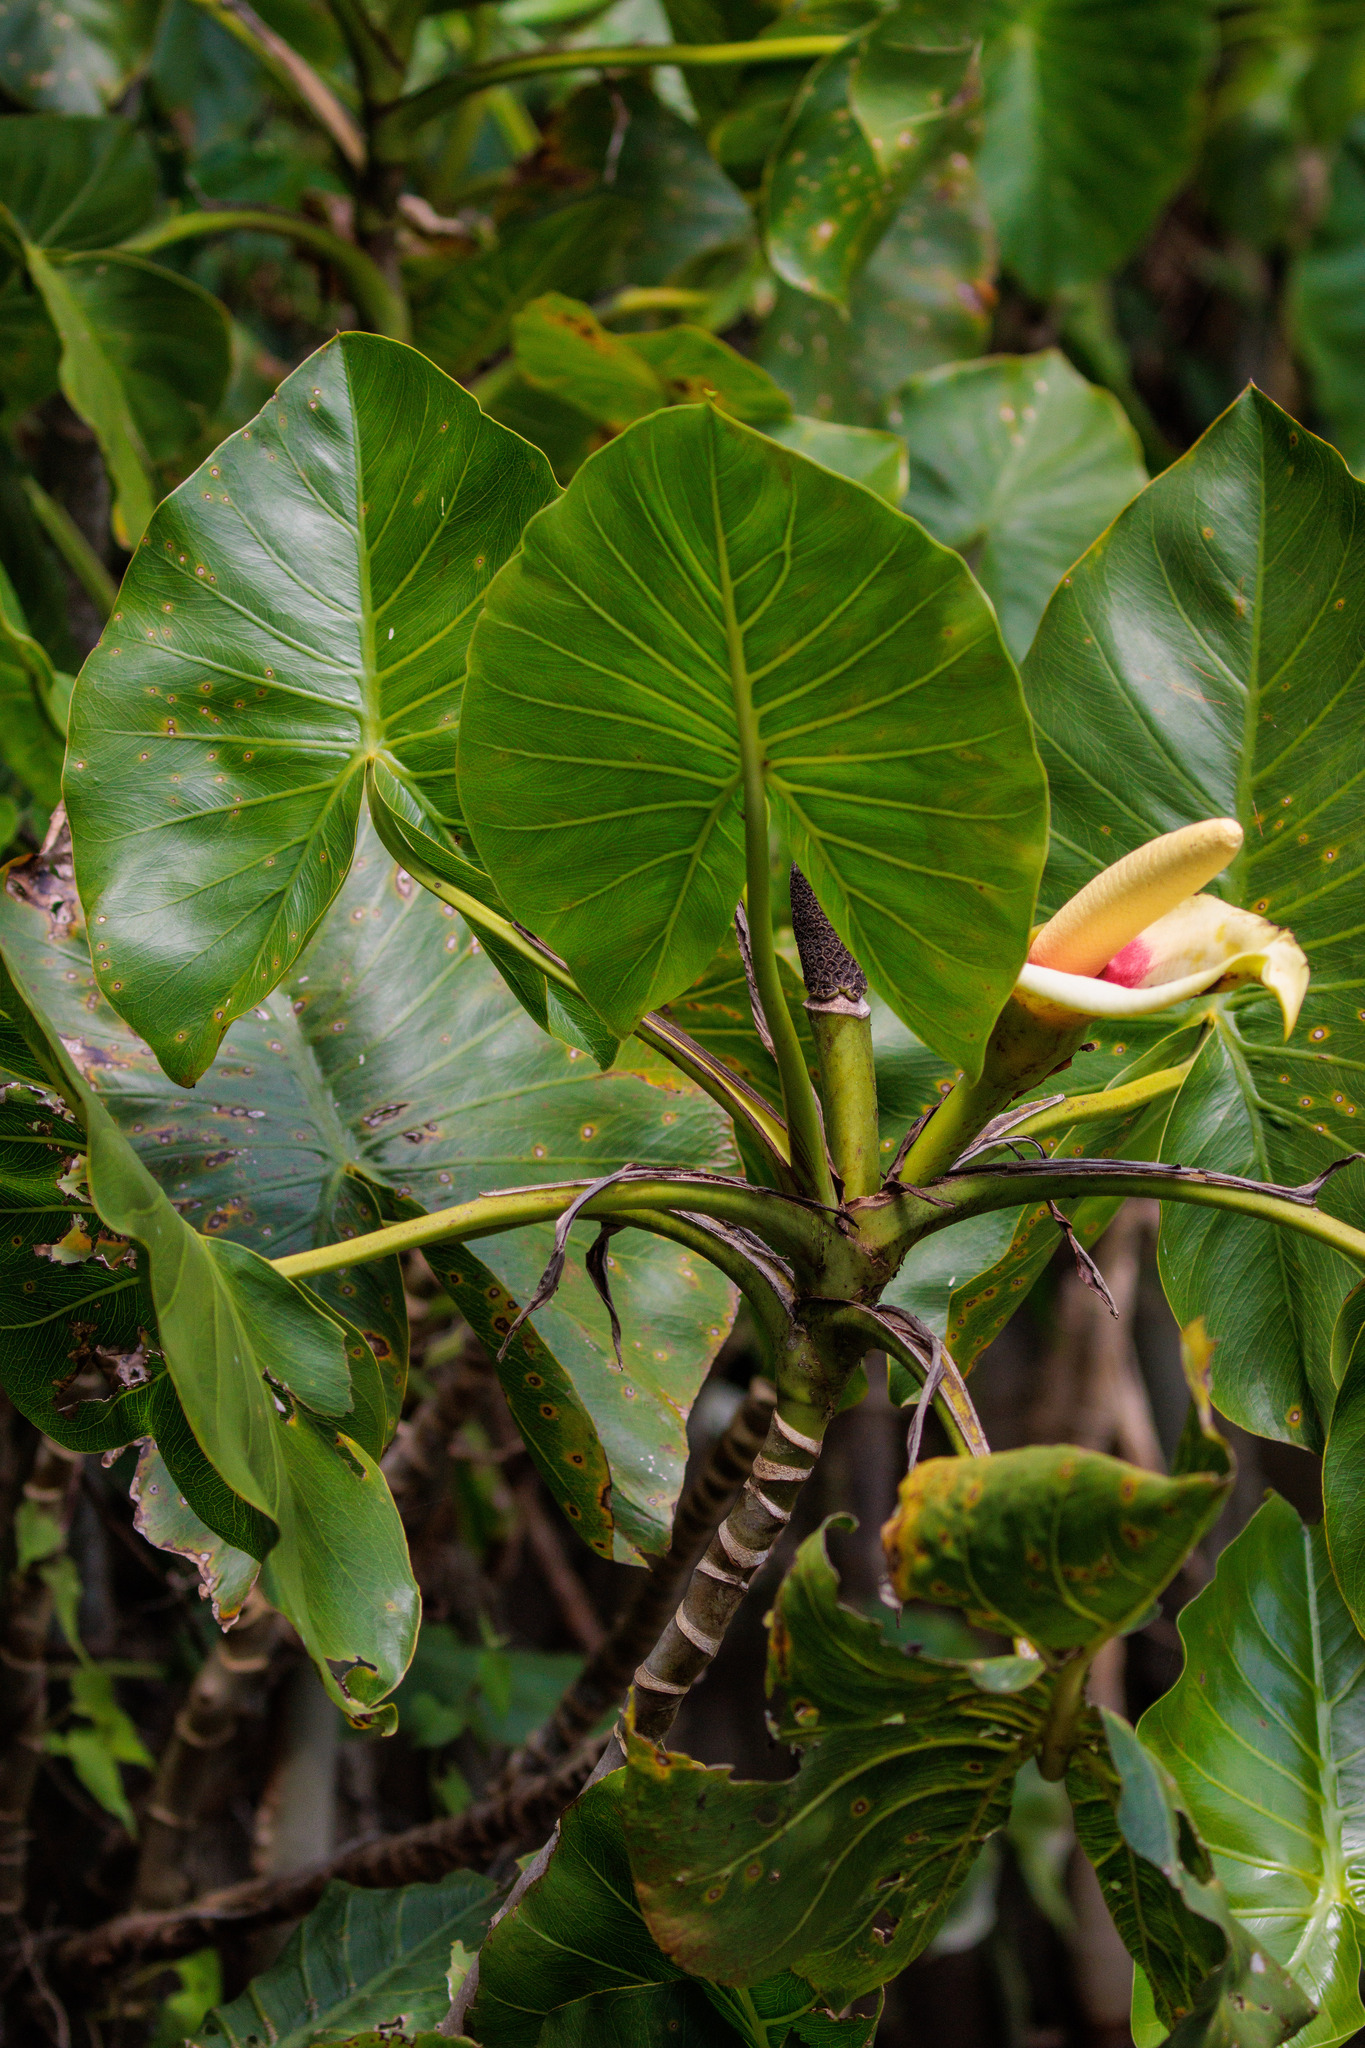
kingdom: Plantae
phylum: Tracheophyta
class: Liliopsida
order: Alismatales
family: Araceae
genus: Montrichardia
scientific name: Montrichardia linifera
